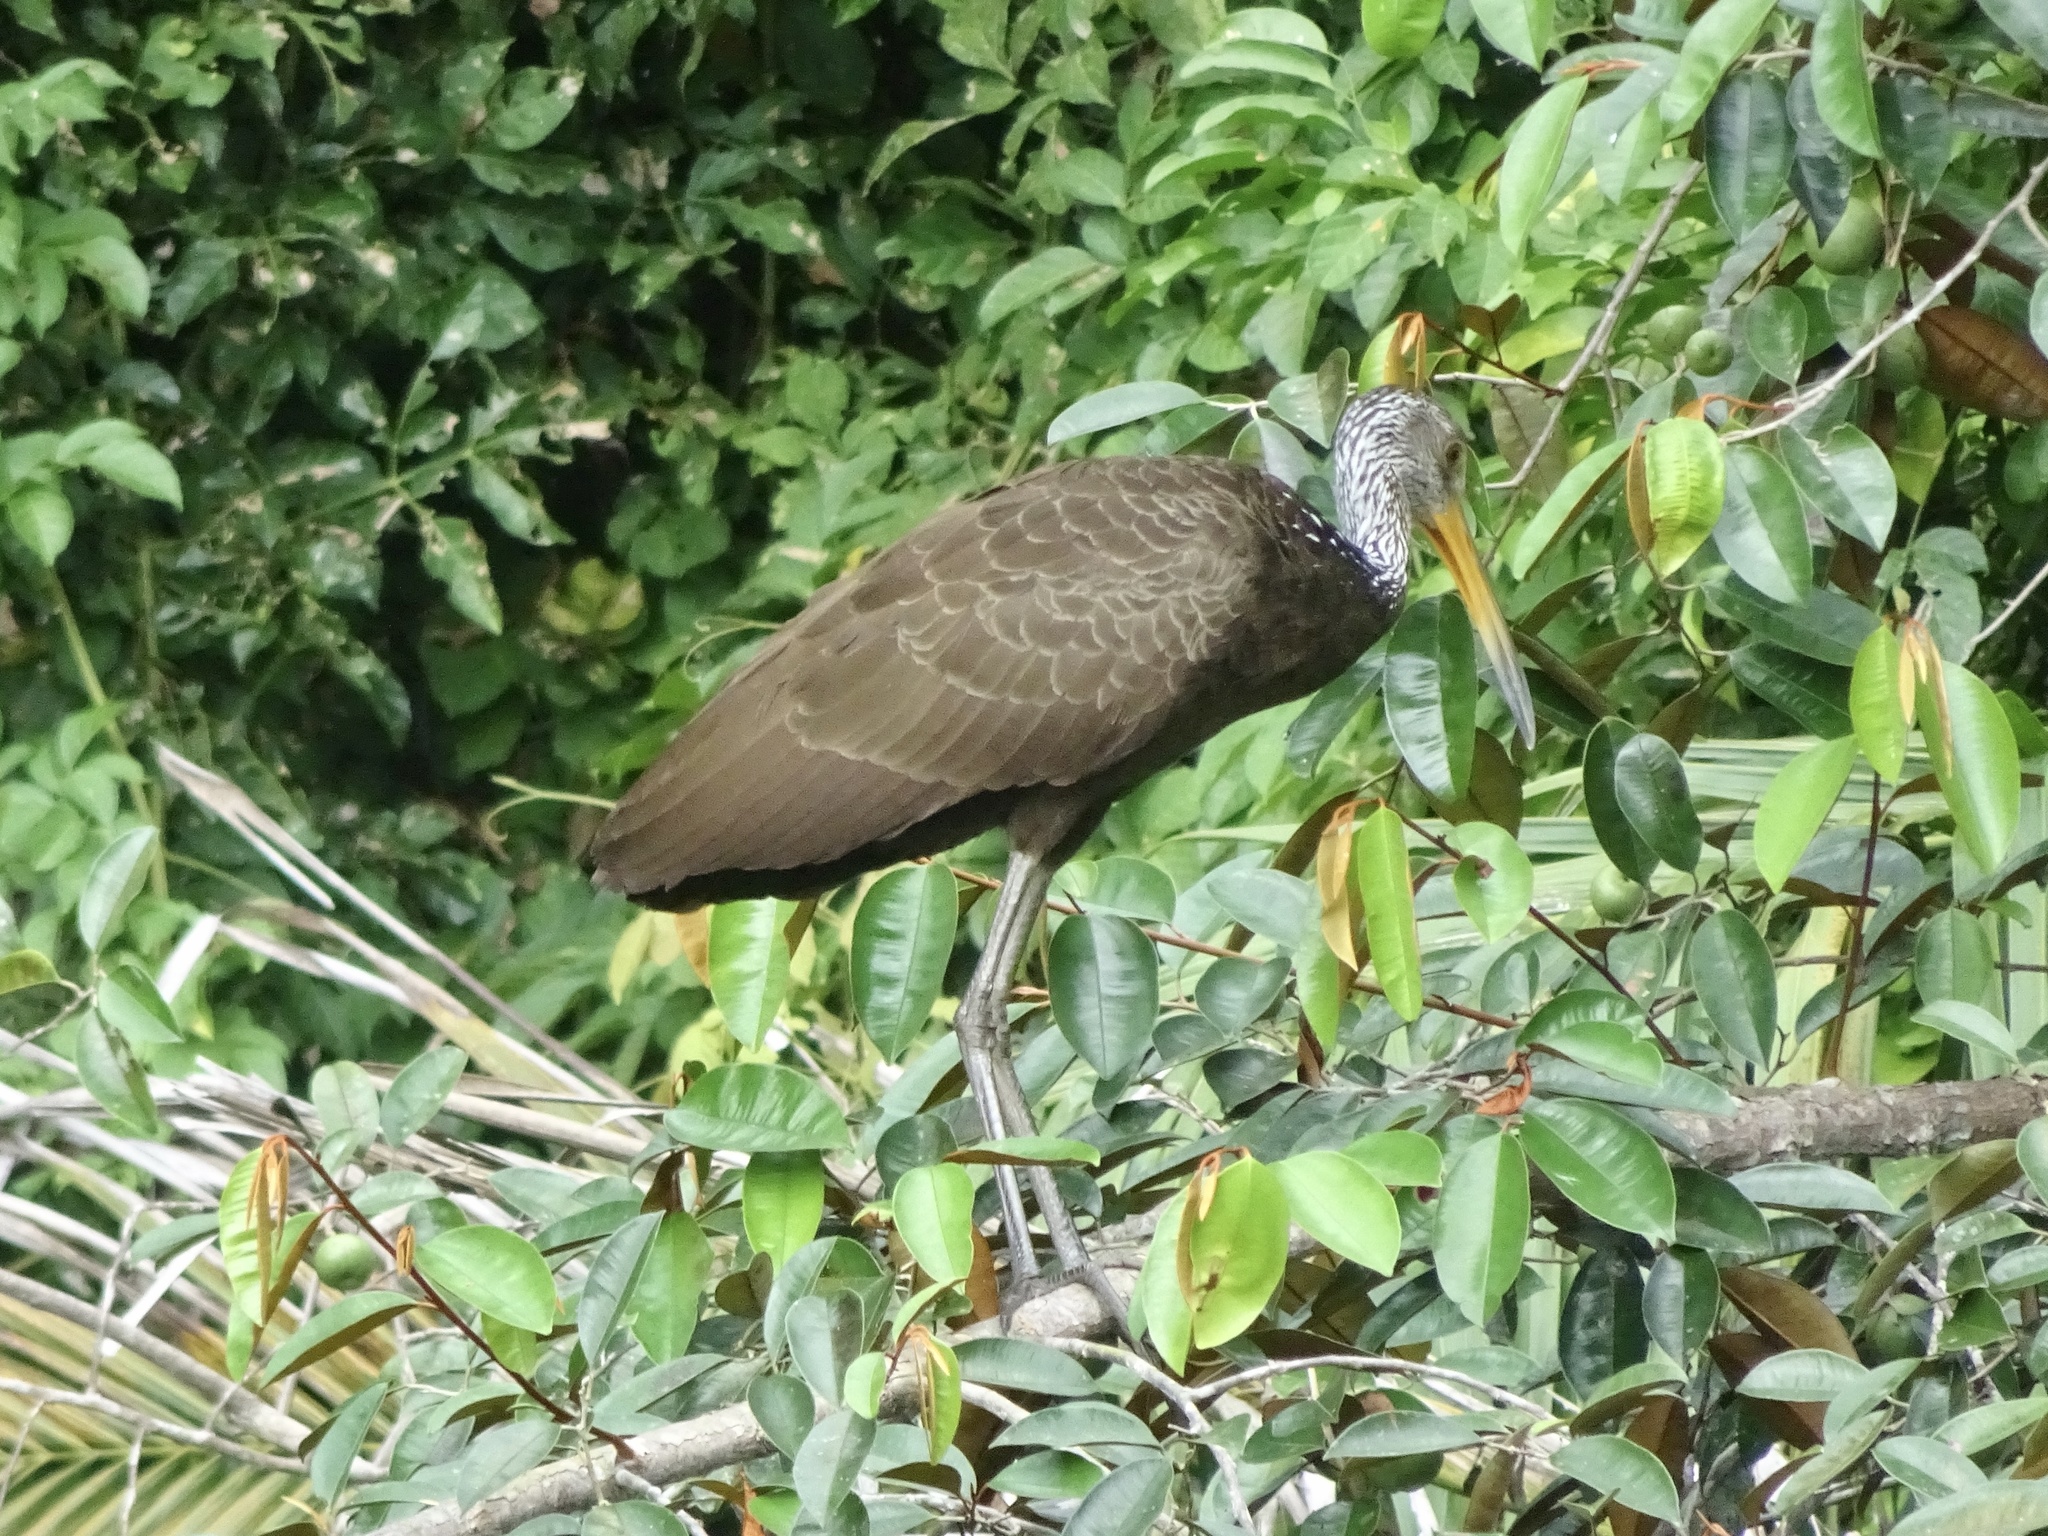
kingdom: Animalia
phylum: Chordata
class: Aves
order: Gruiformes
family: Aramidae
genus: Aramus
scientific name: Aramus guarauna
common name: Limpkin
